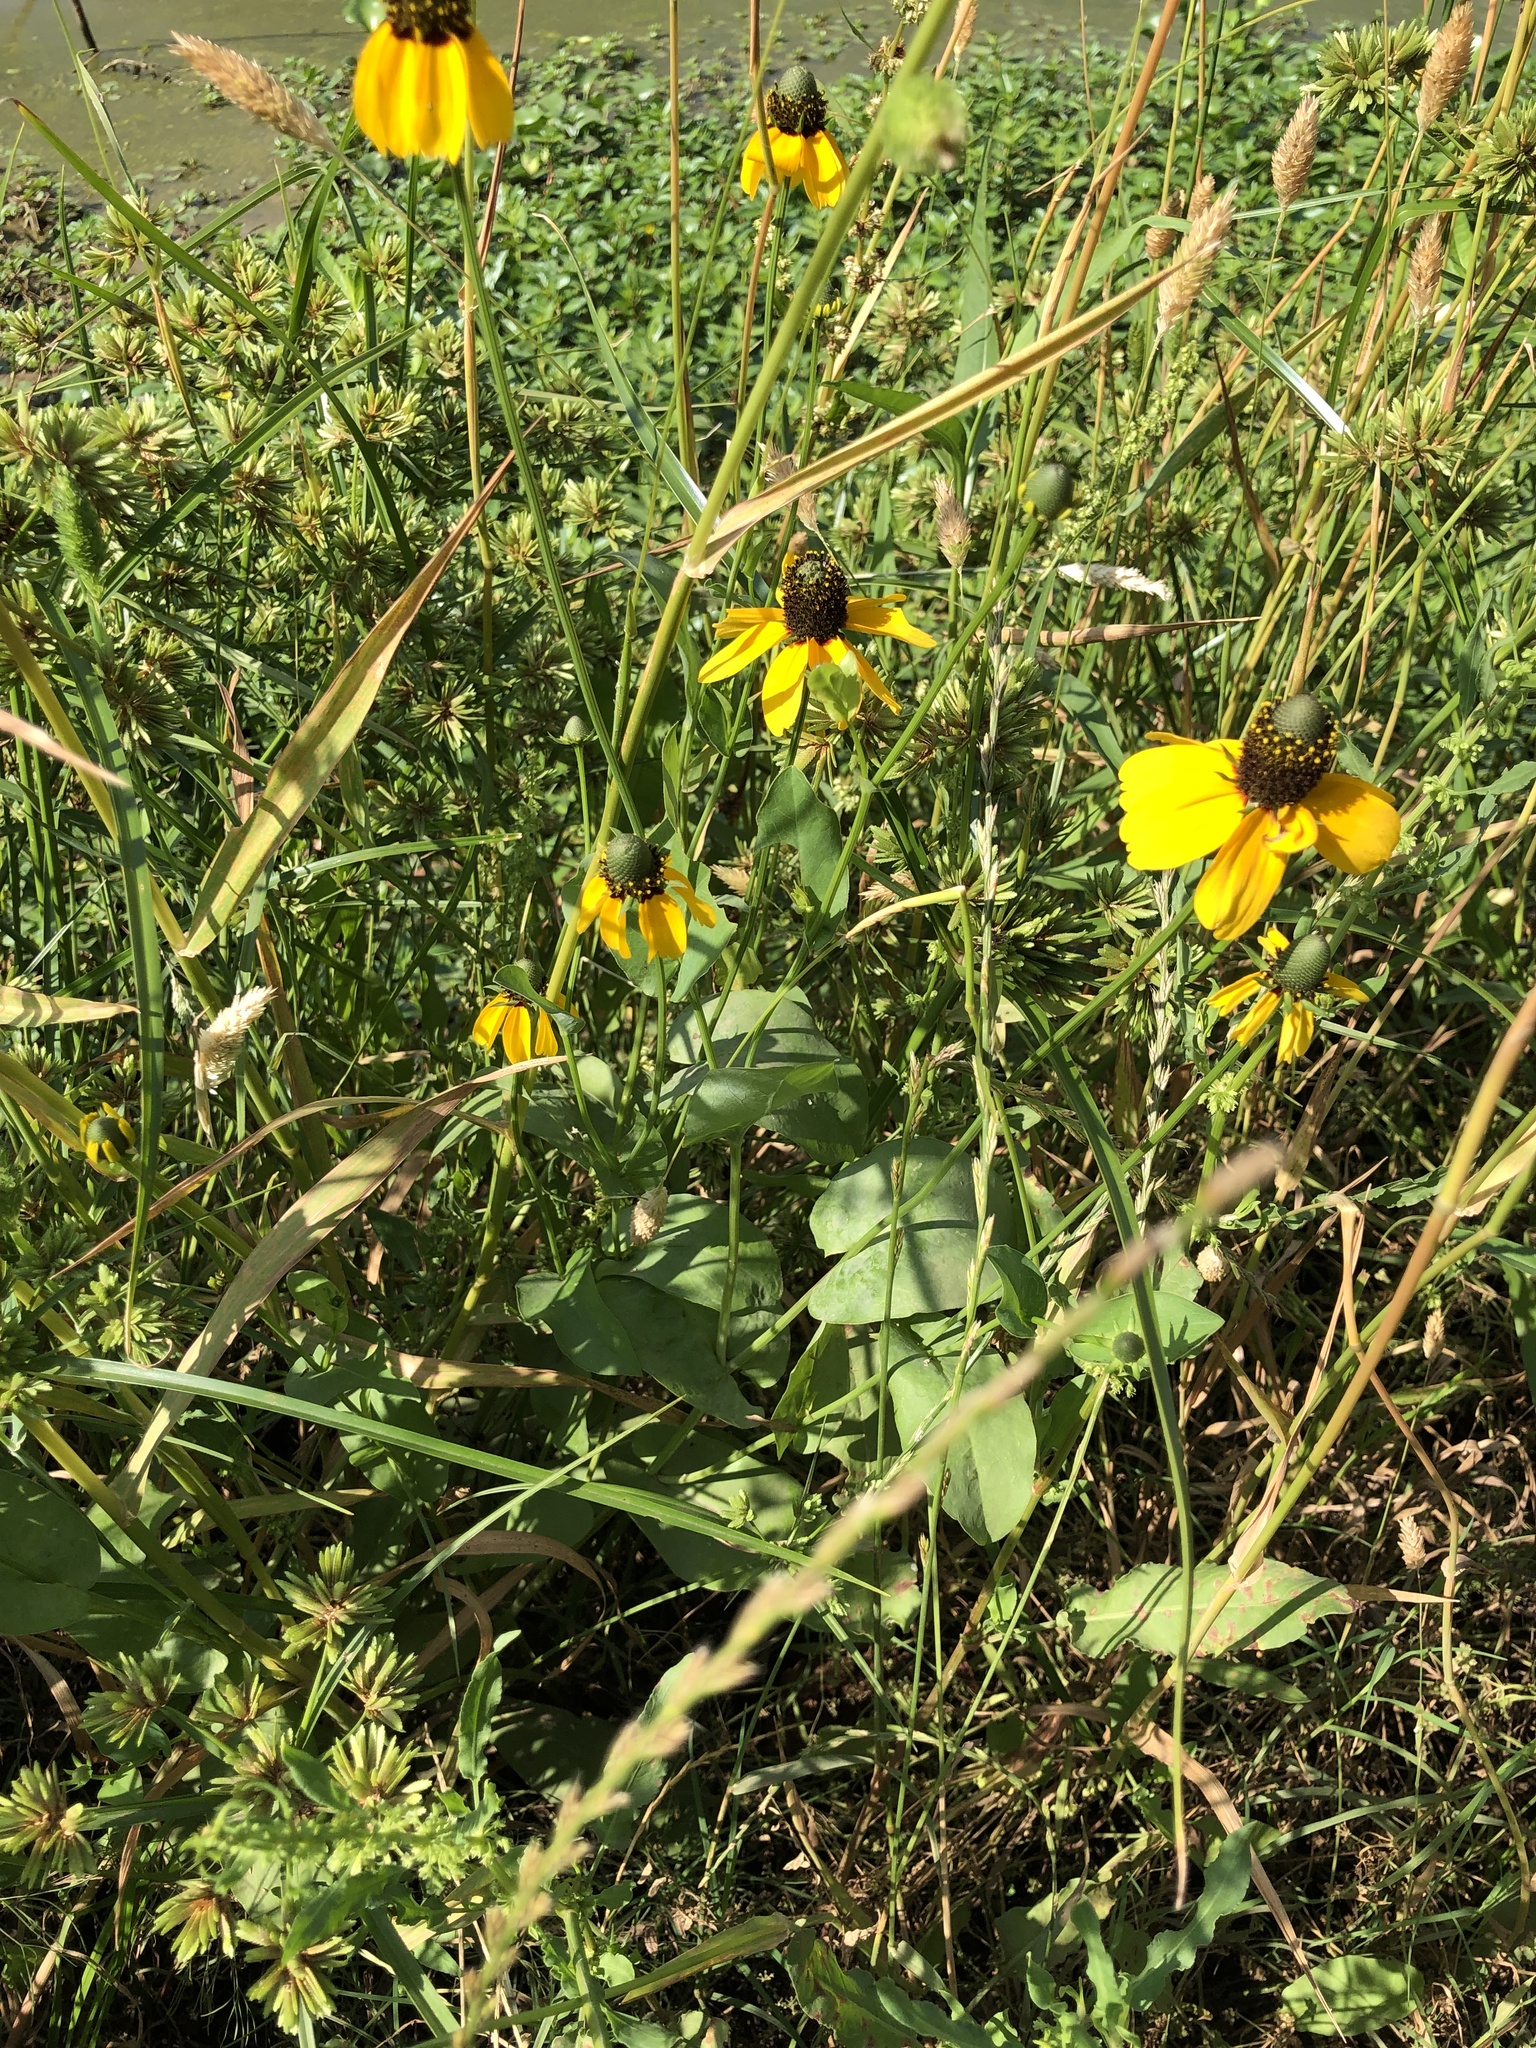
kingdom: Plantae
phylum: Tracheophyta
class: Magnoliopsida
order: Asterales
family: Asteraceae
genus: Rudbeckia
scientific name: Rudbeckia amplexicaulis
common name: Clasping-leaf coneflower
